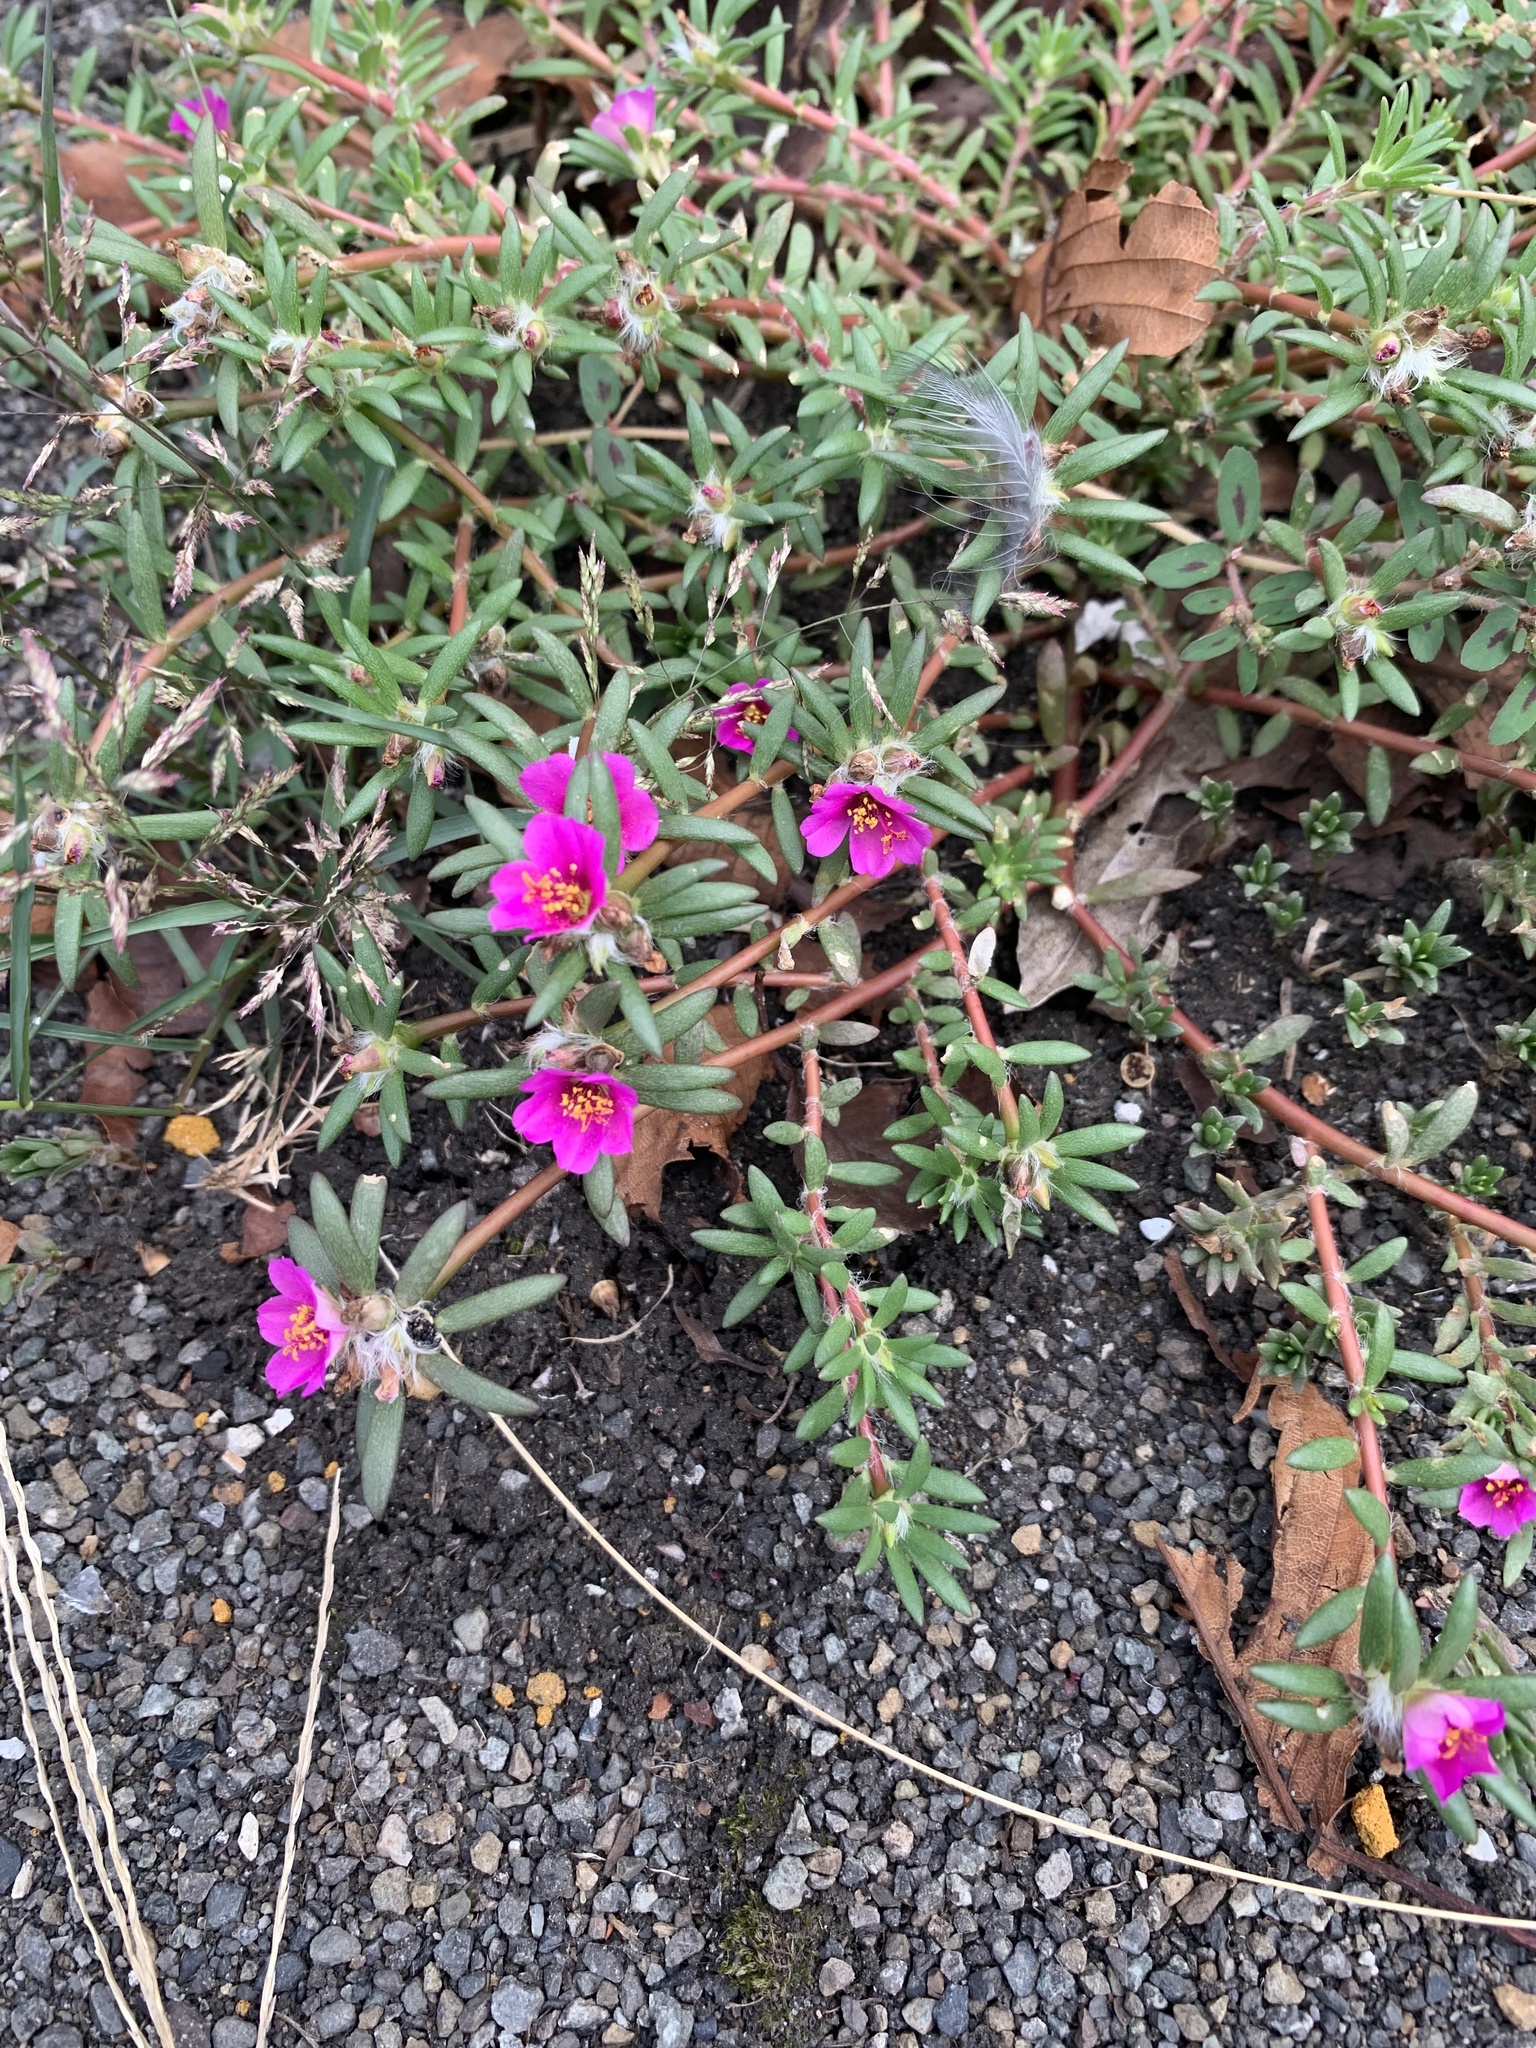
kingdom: Plantae
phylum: Tracheophyta
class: Magnoliopsida
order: Caryophyllales
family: Portulacaceae
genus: Portulaca
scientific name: Portulaca pilosa
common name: Kiss me quick
